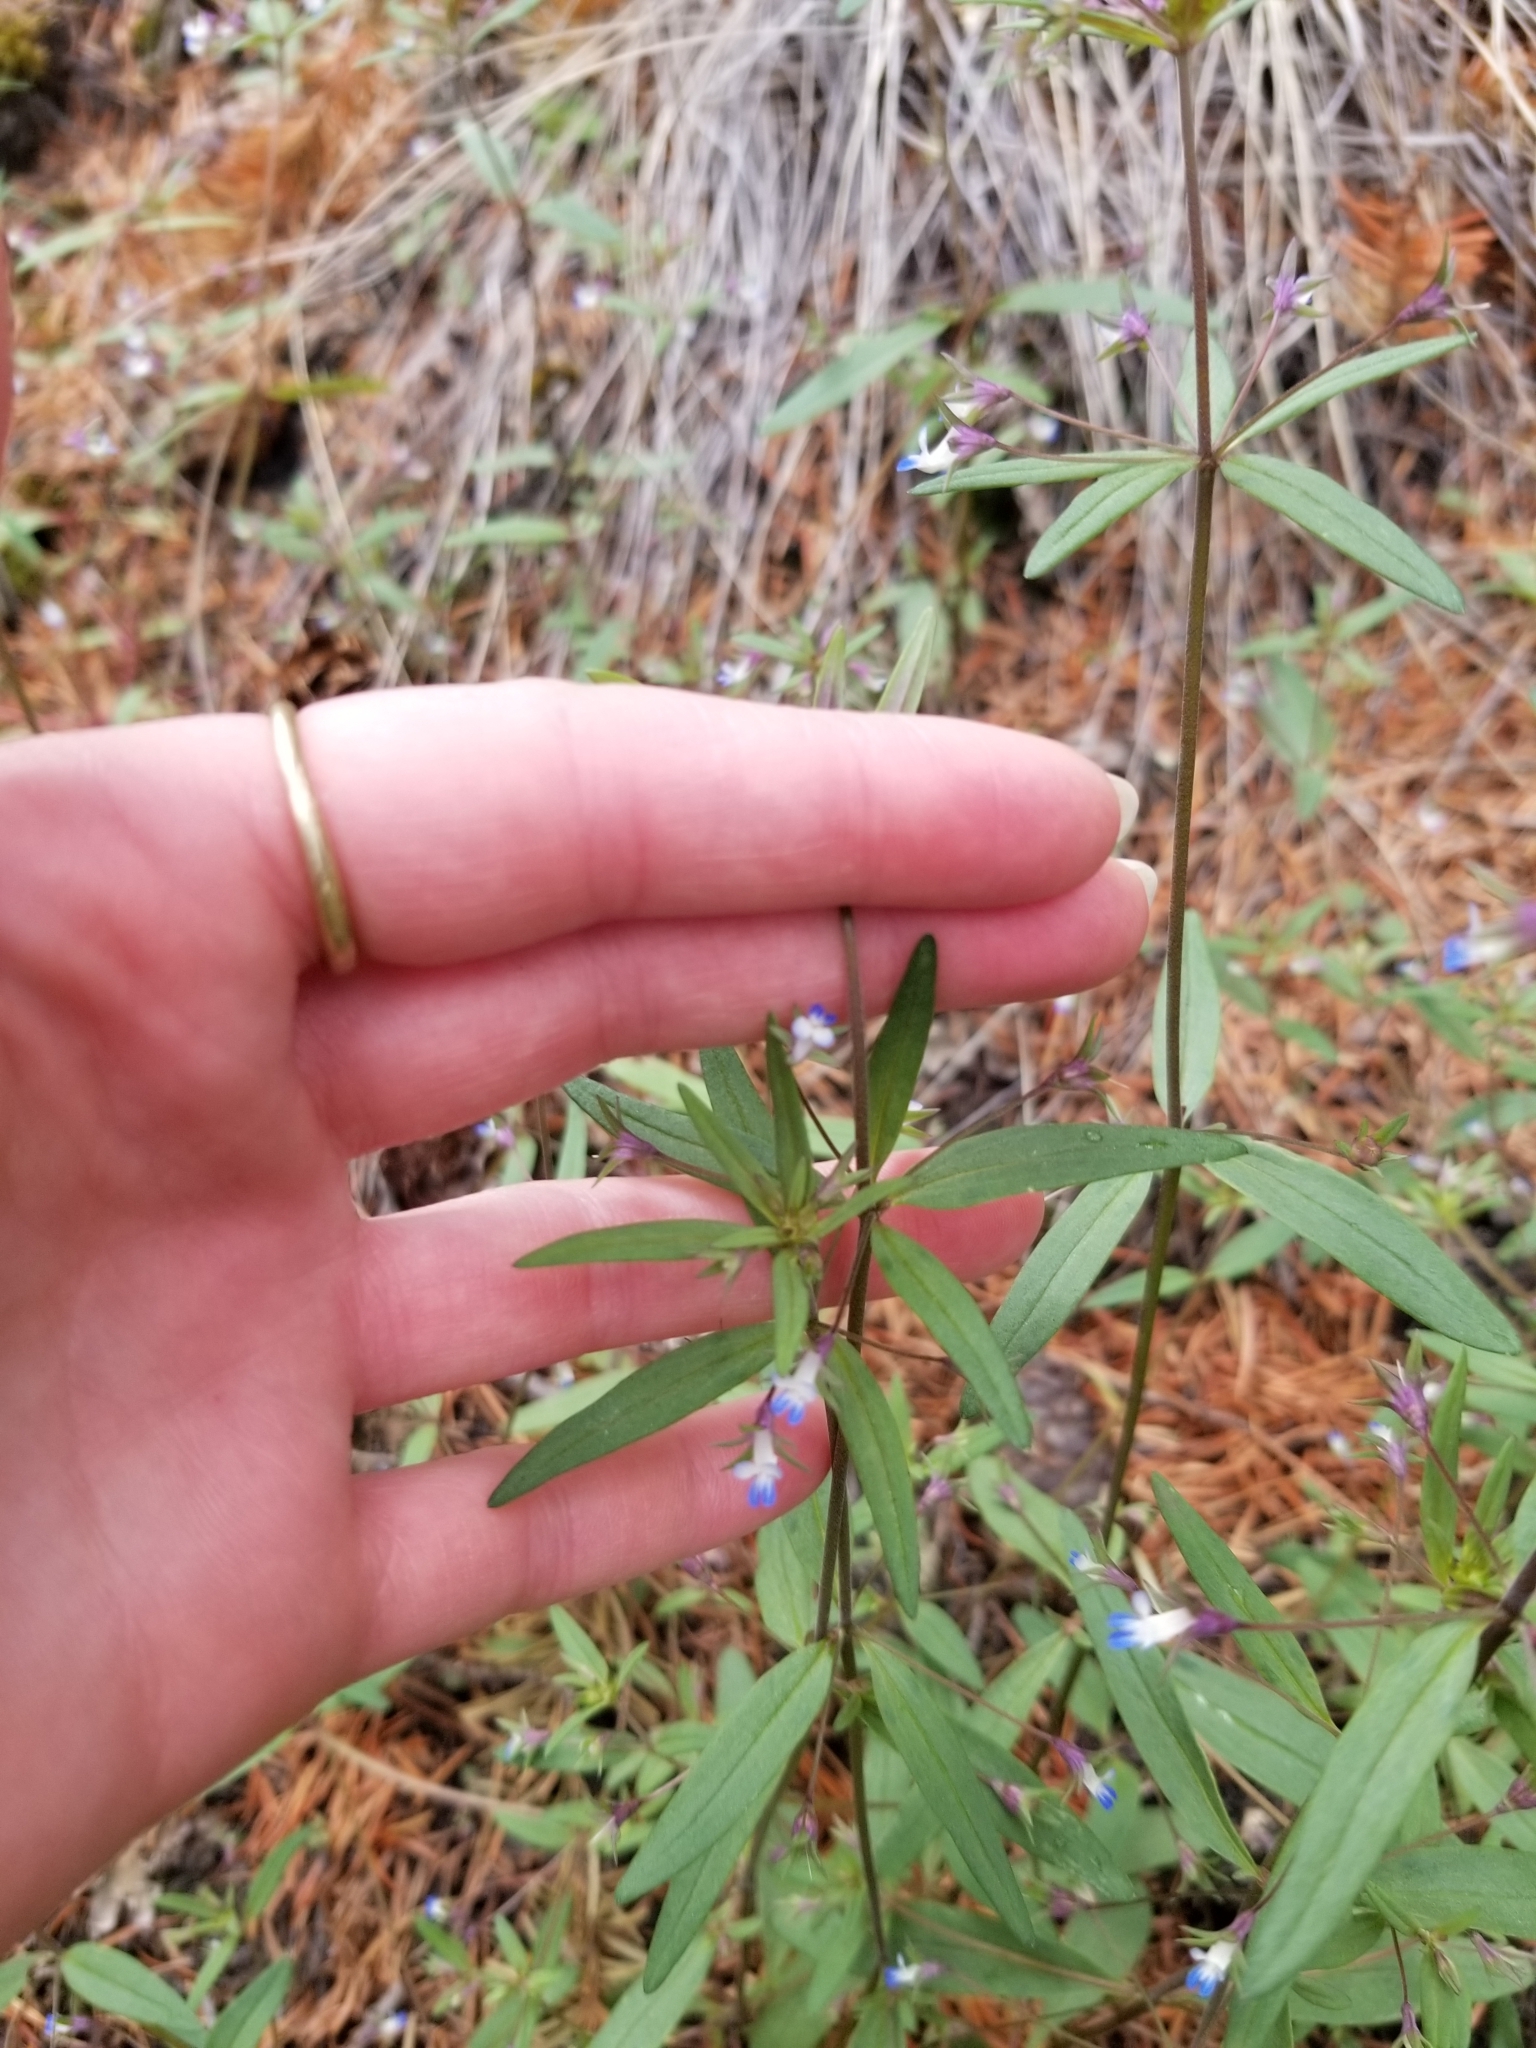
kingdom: Plantae
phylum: Tracheophyta
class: Magnoliopsida
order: Lamiales
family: Plantaginaceae
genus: Collinsia
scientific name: Collinsia parviflora
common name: Blue-lips
